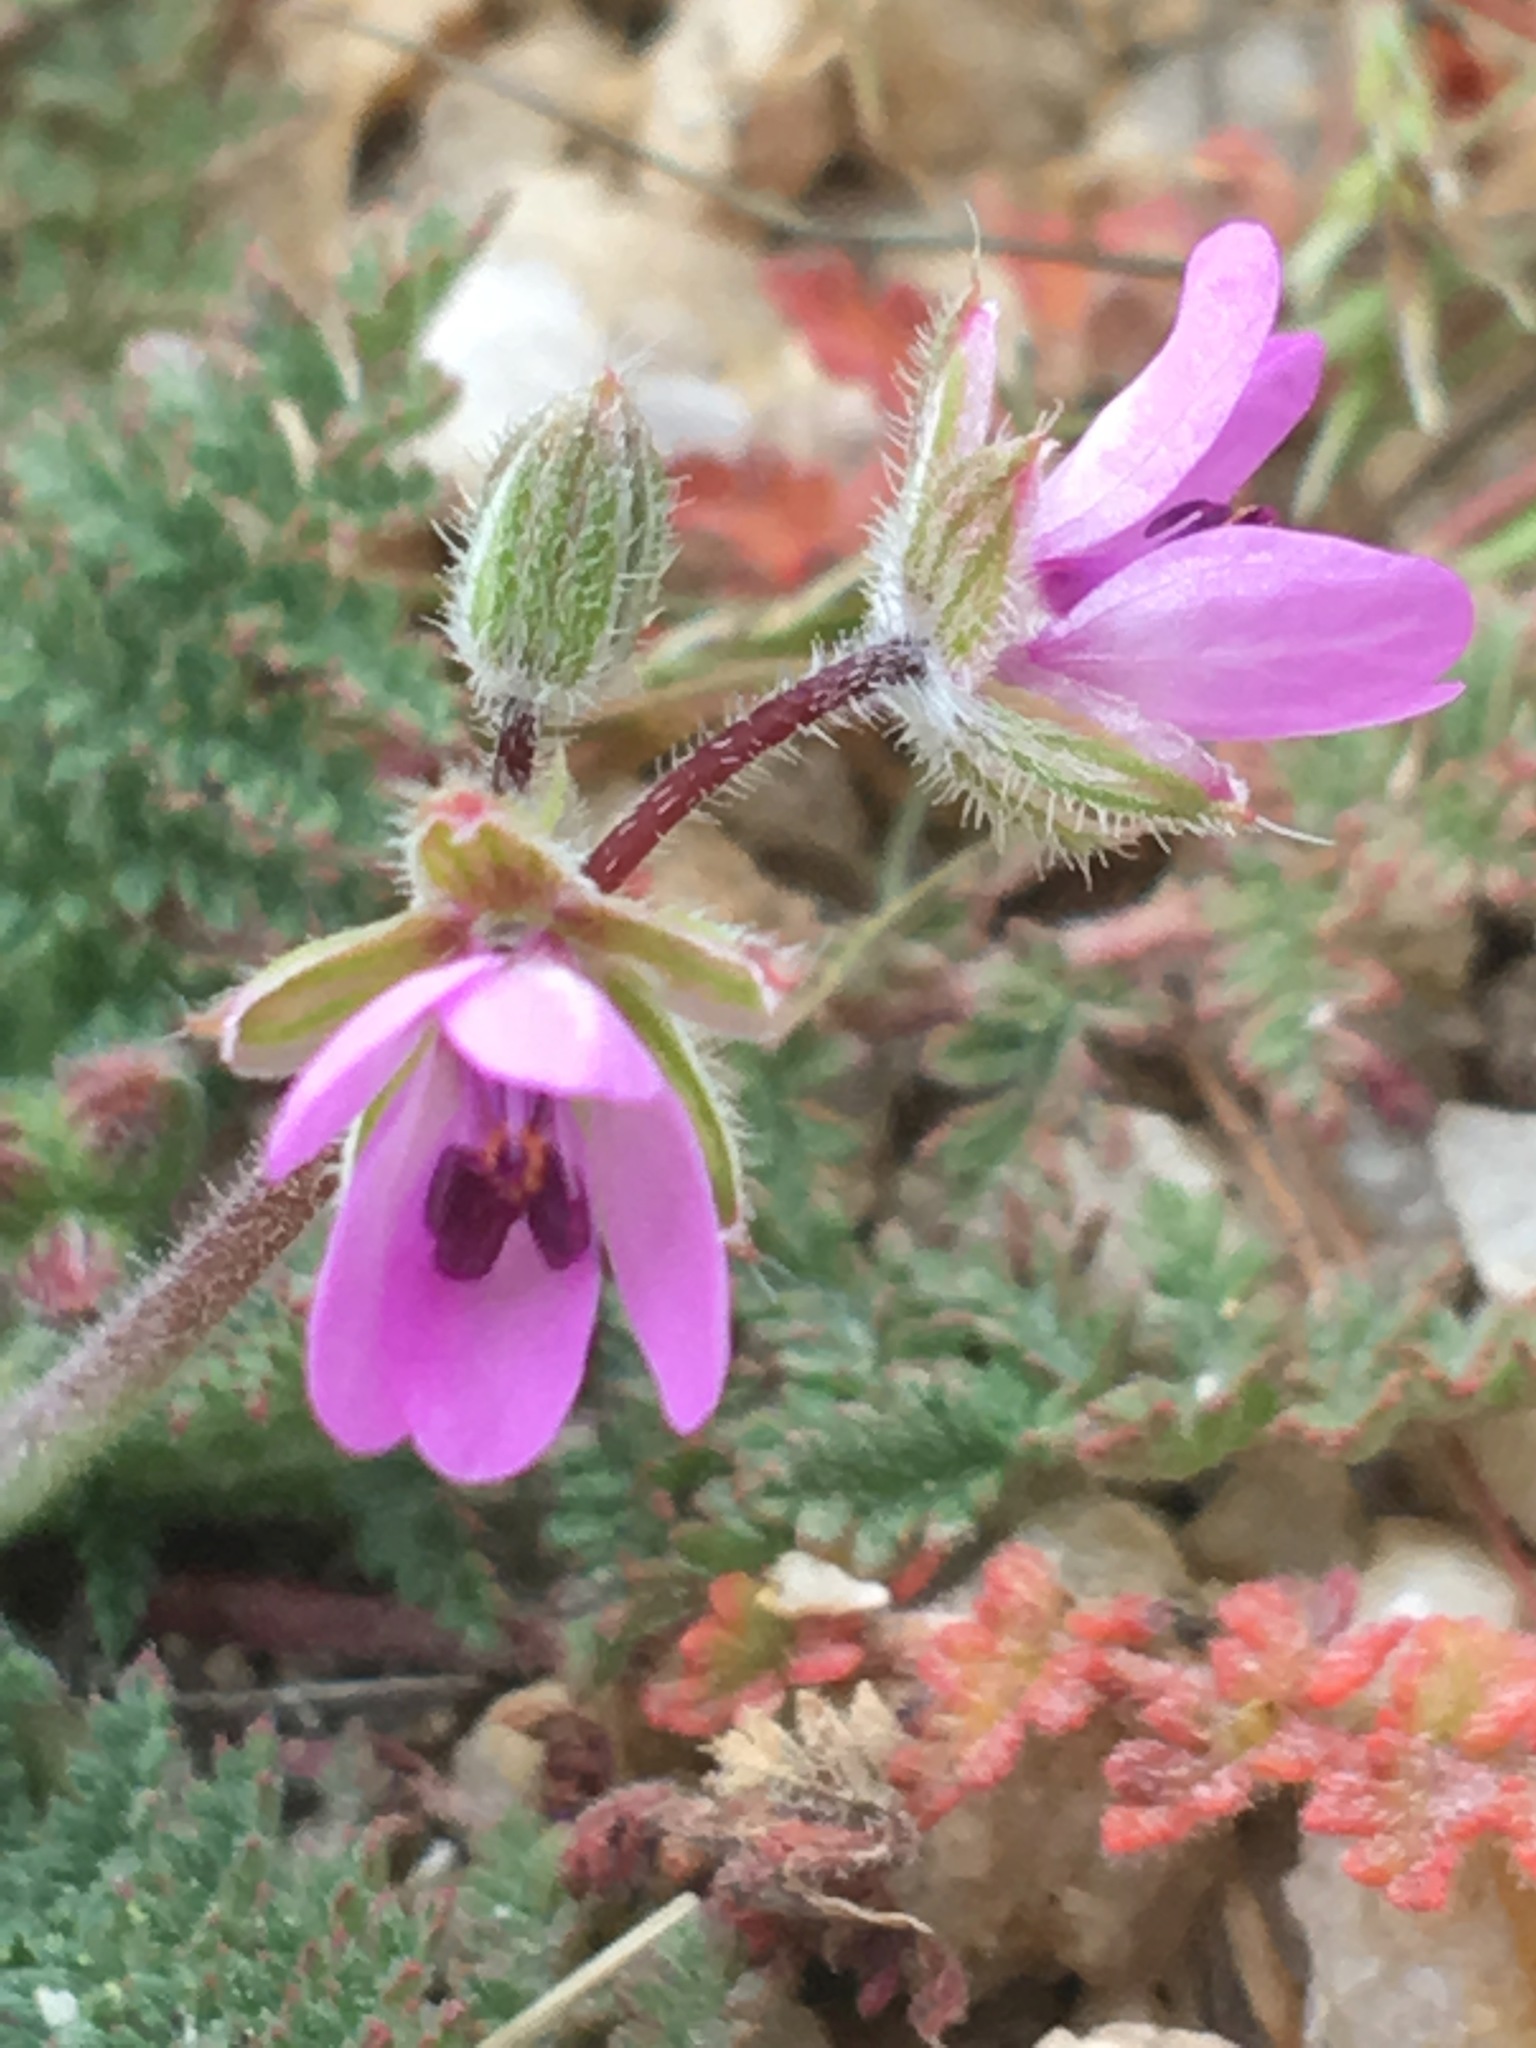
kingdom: Plantae
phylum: Tracheophyta
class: Magnoliopsida
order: Geraniales
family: Geraniaceae
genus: Erodium
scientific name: Erodium cicutarium
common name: Common stork's-bill
